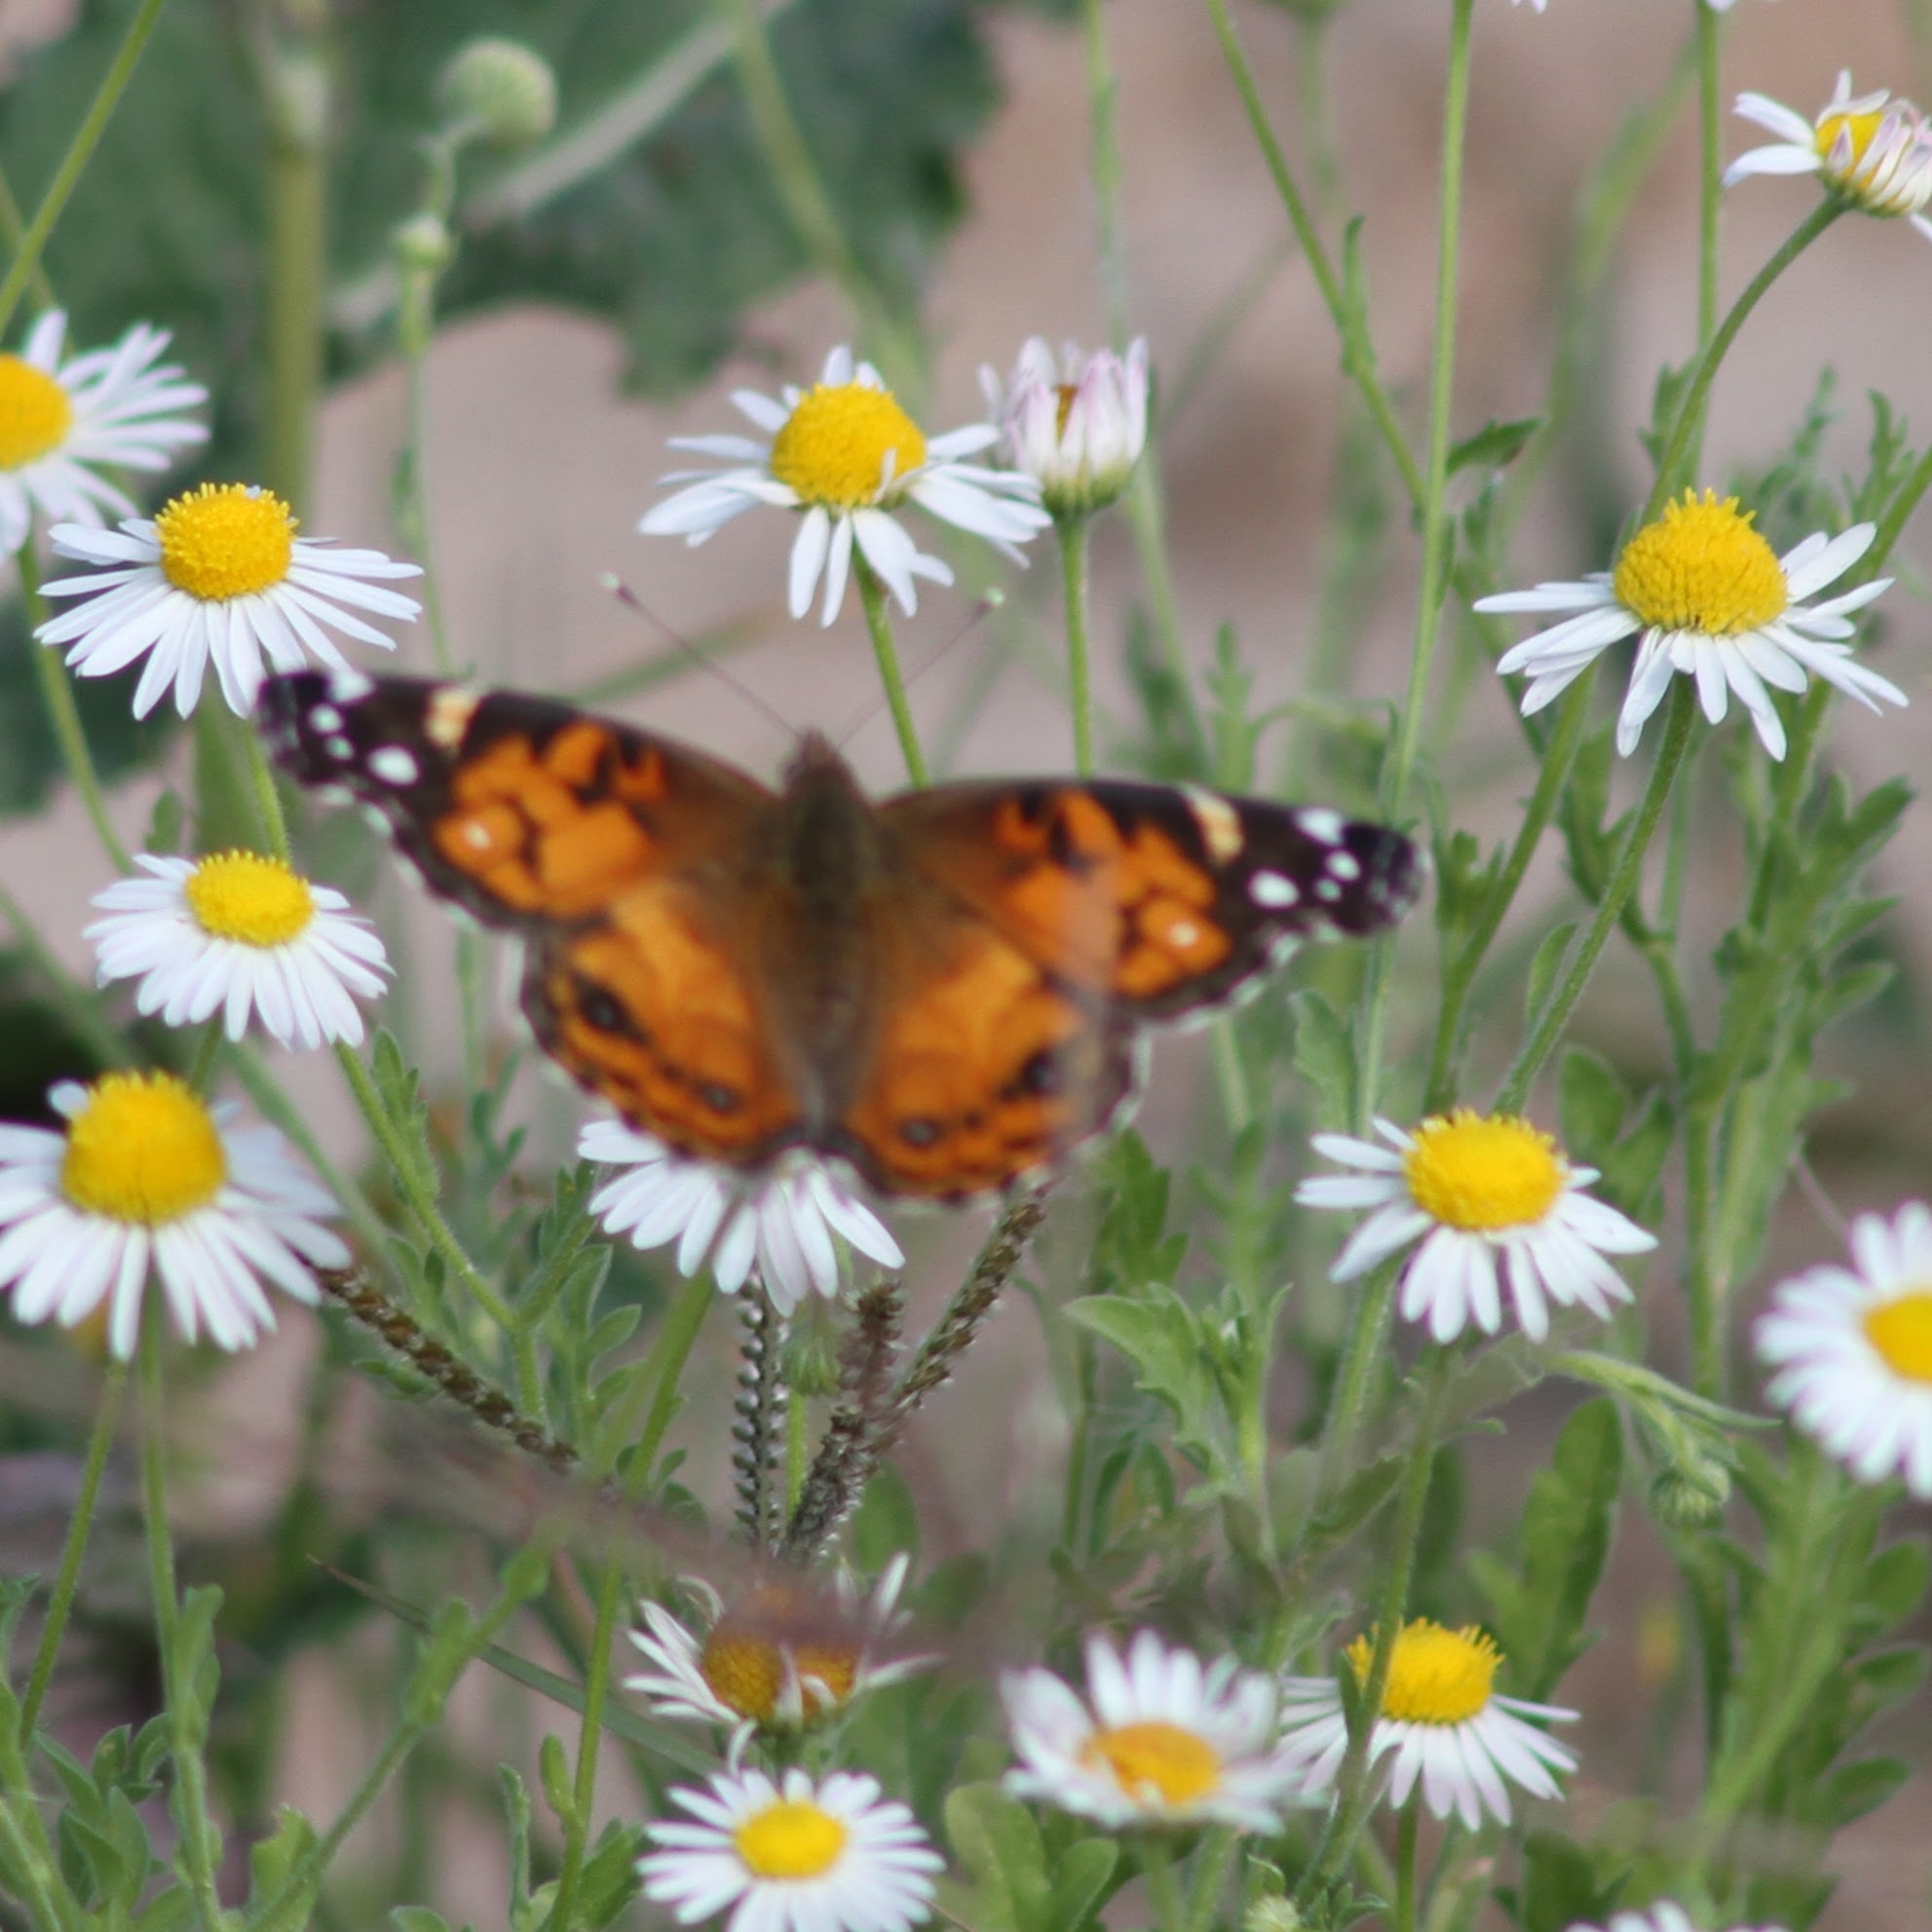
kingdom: Animalia
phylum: Arthropoda
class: Insecta
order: Lepidoptera
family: Nymphalidae
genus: Vanessa
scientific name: Vanessa virginiensis
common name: American lady
